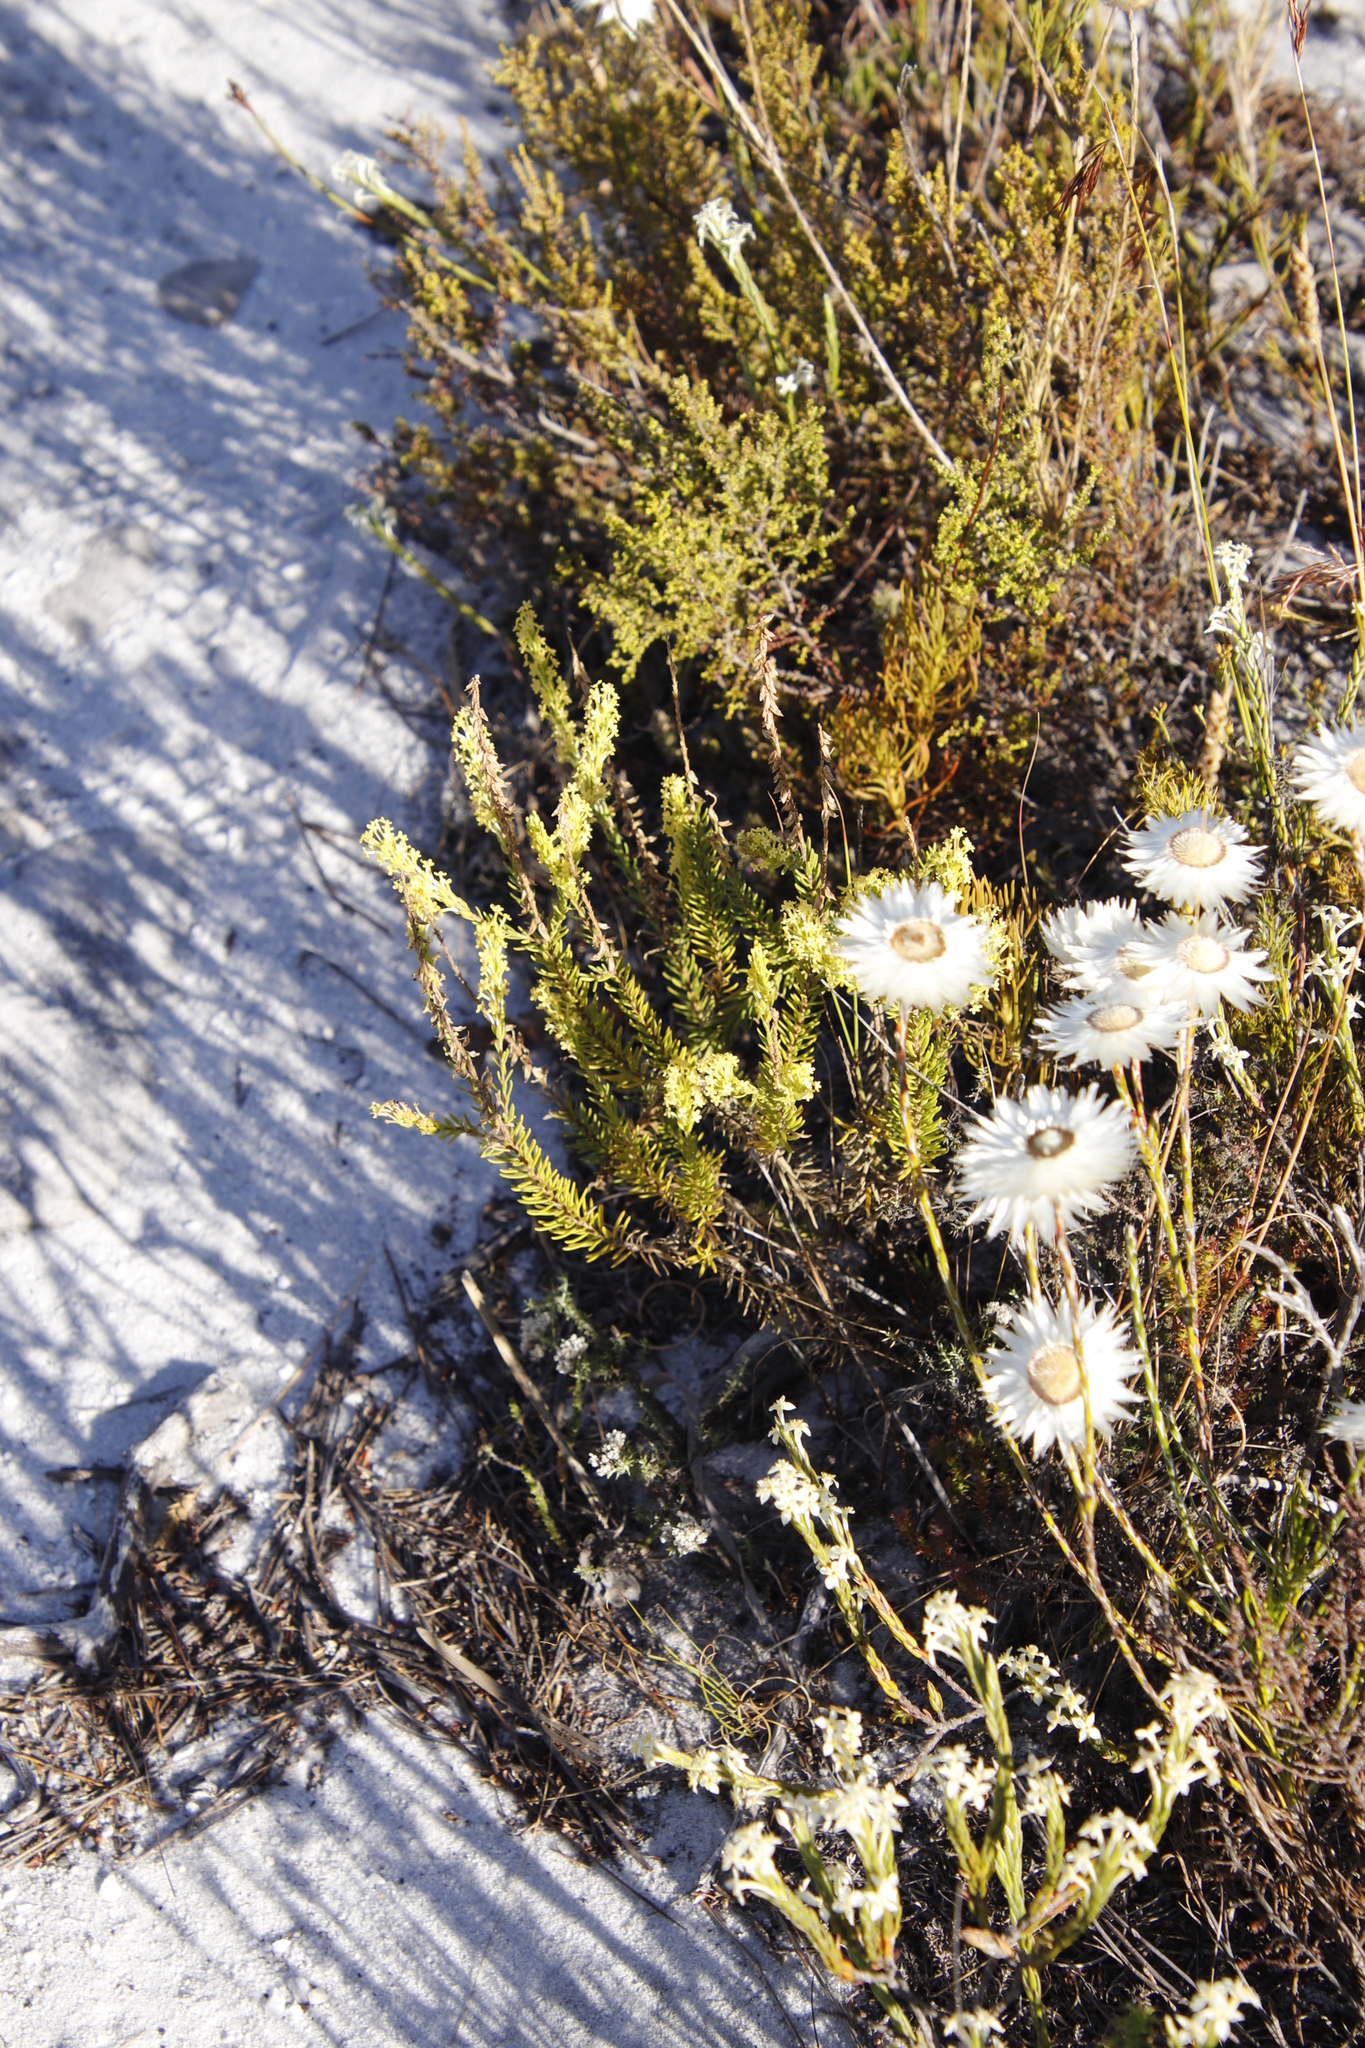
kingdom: Plantae
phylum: Tracheophyta
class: Magnoliopsida
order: Lamiales
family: Scrophulariaceae
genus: Microdon
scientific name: Microdon dubius
